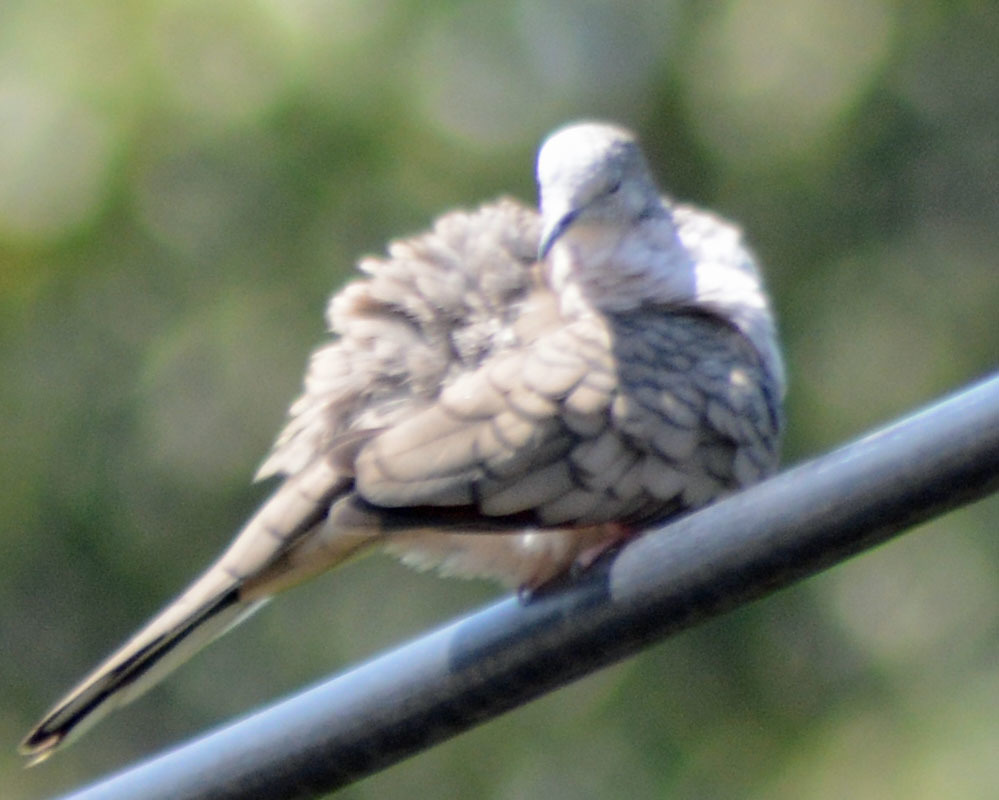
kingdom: Animalia
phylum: Chordata
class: Aves
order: Columbiformes
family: Columbidae
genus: Columbina
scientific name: Columbina inca
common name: Inca dove
